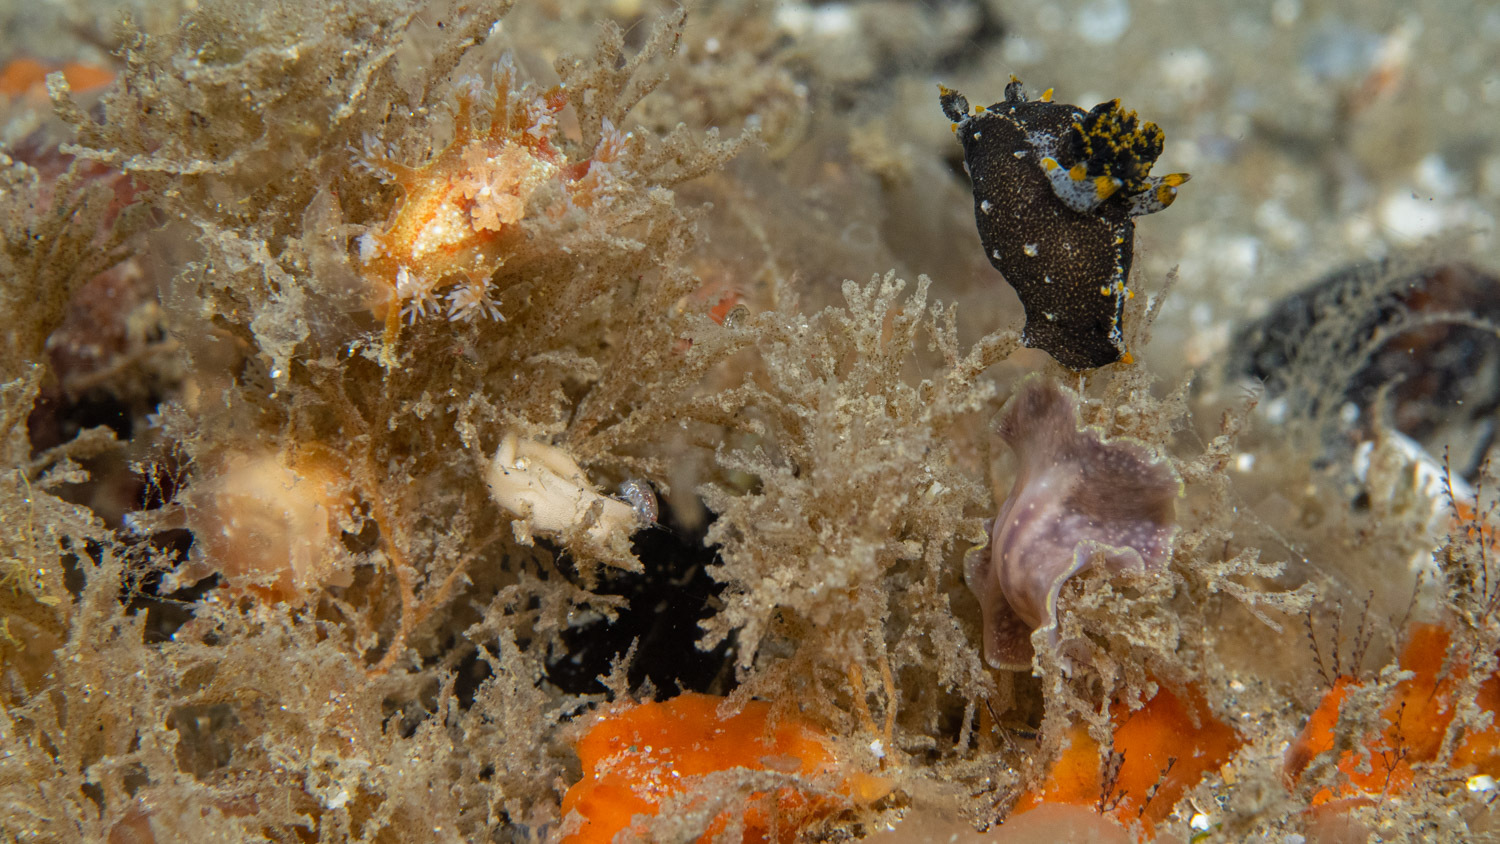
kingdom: Animalia
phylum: Mollusca
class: Gastropoda
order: Nudibranchia
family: Polyceridae
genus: Polycera
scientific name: Polycera hedgpethi
